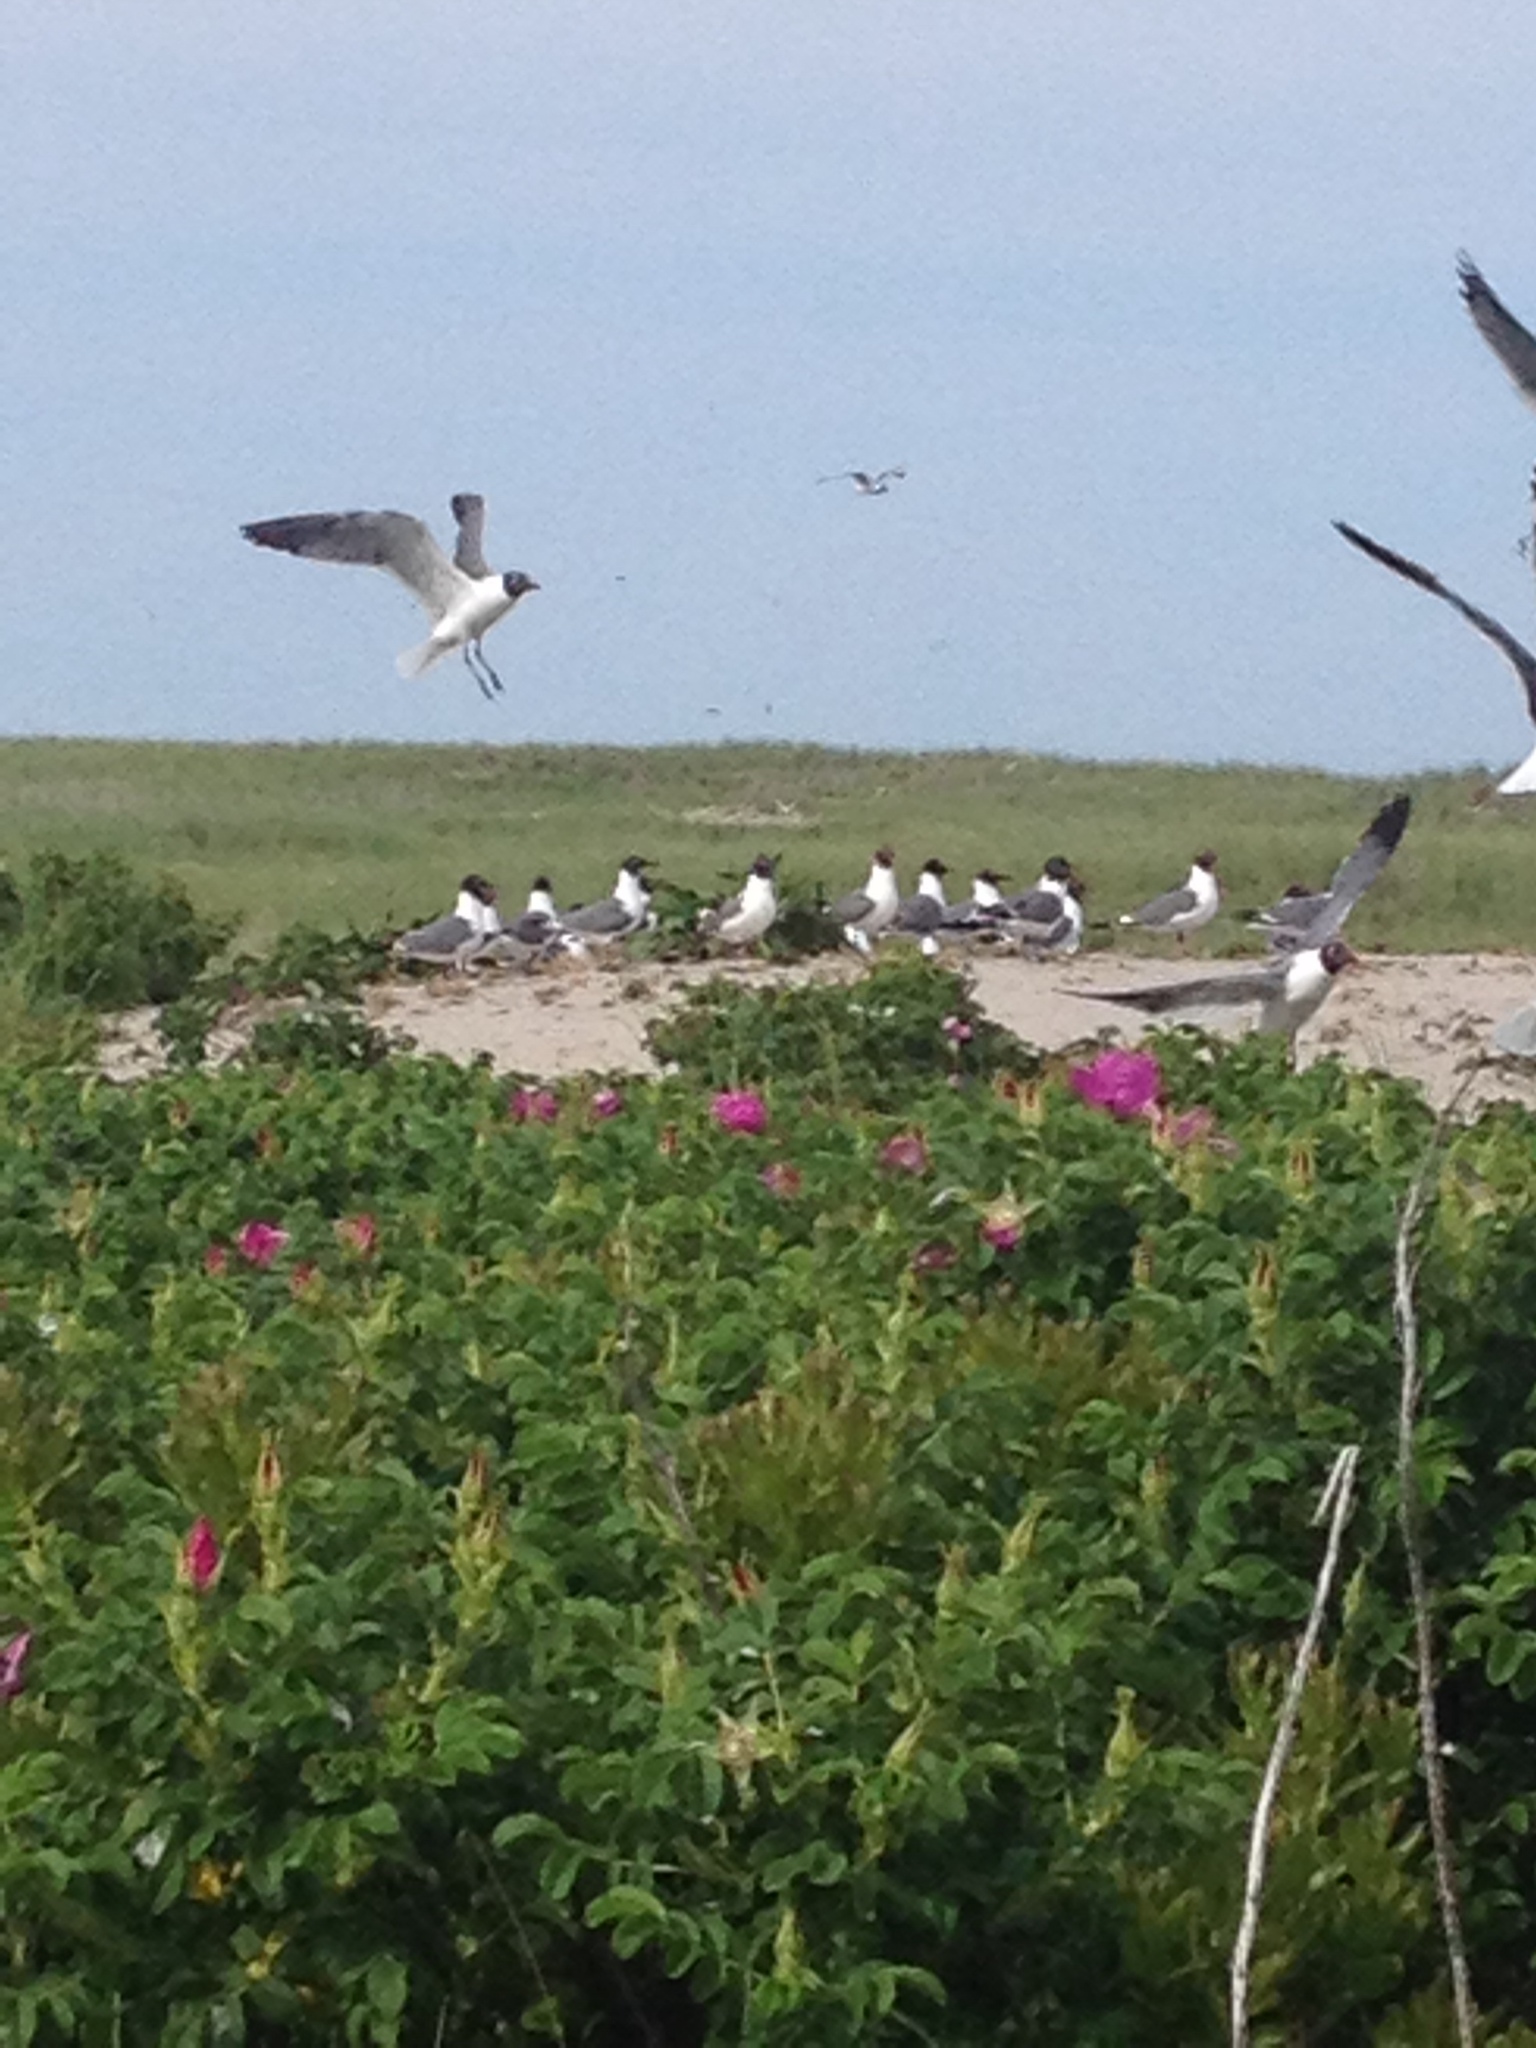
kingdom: Animalia
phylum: Chordata
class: Aves
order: Charadriiformes
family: Laridae
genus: Leucophaeus
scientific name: Leucophaeus atricilla
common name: Laughing gull
